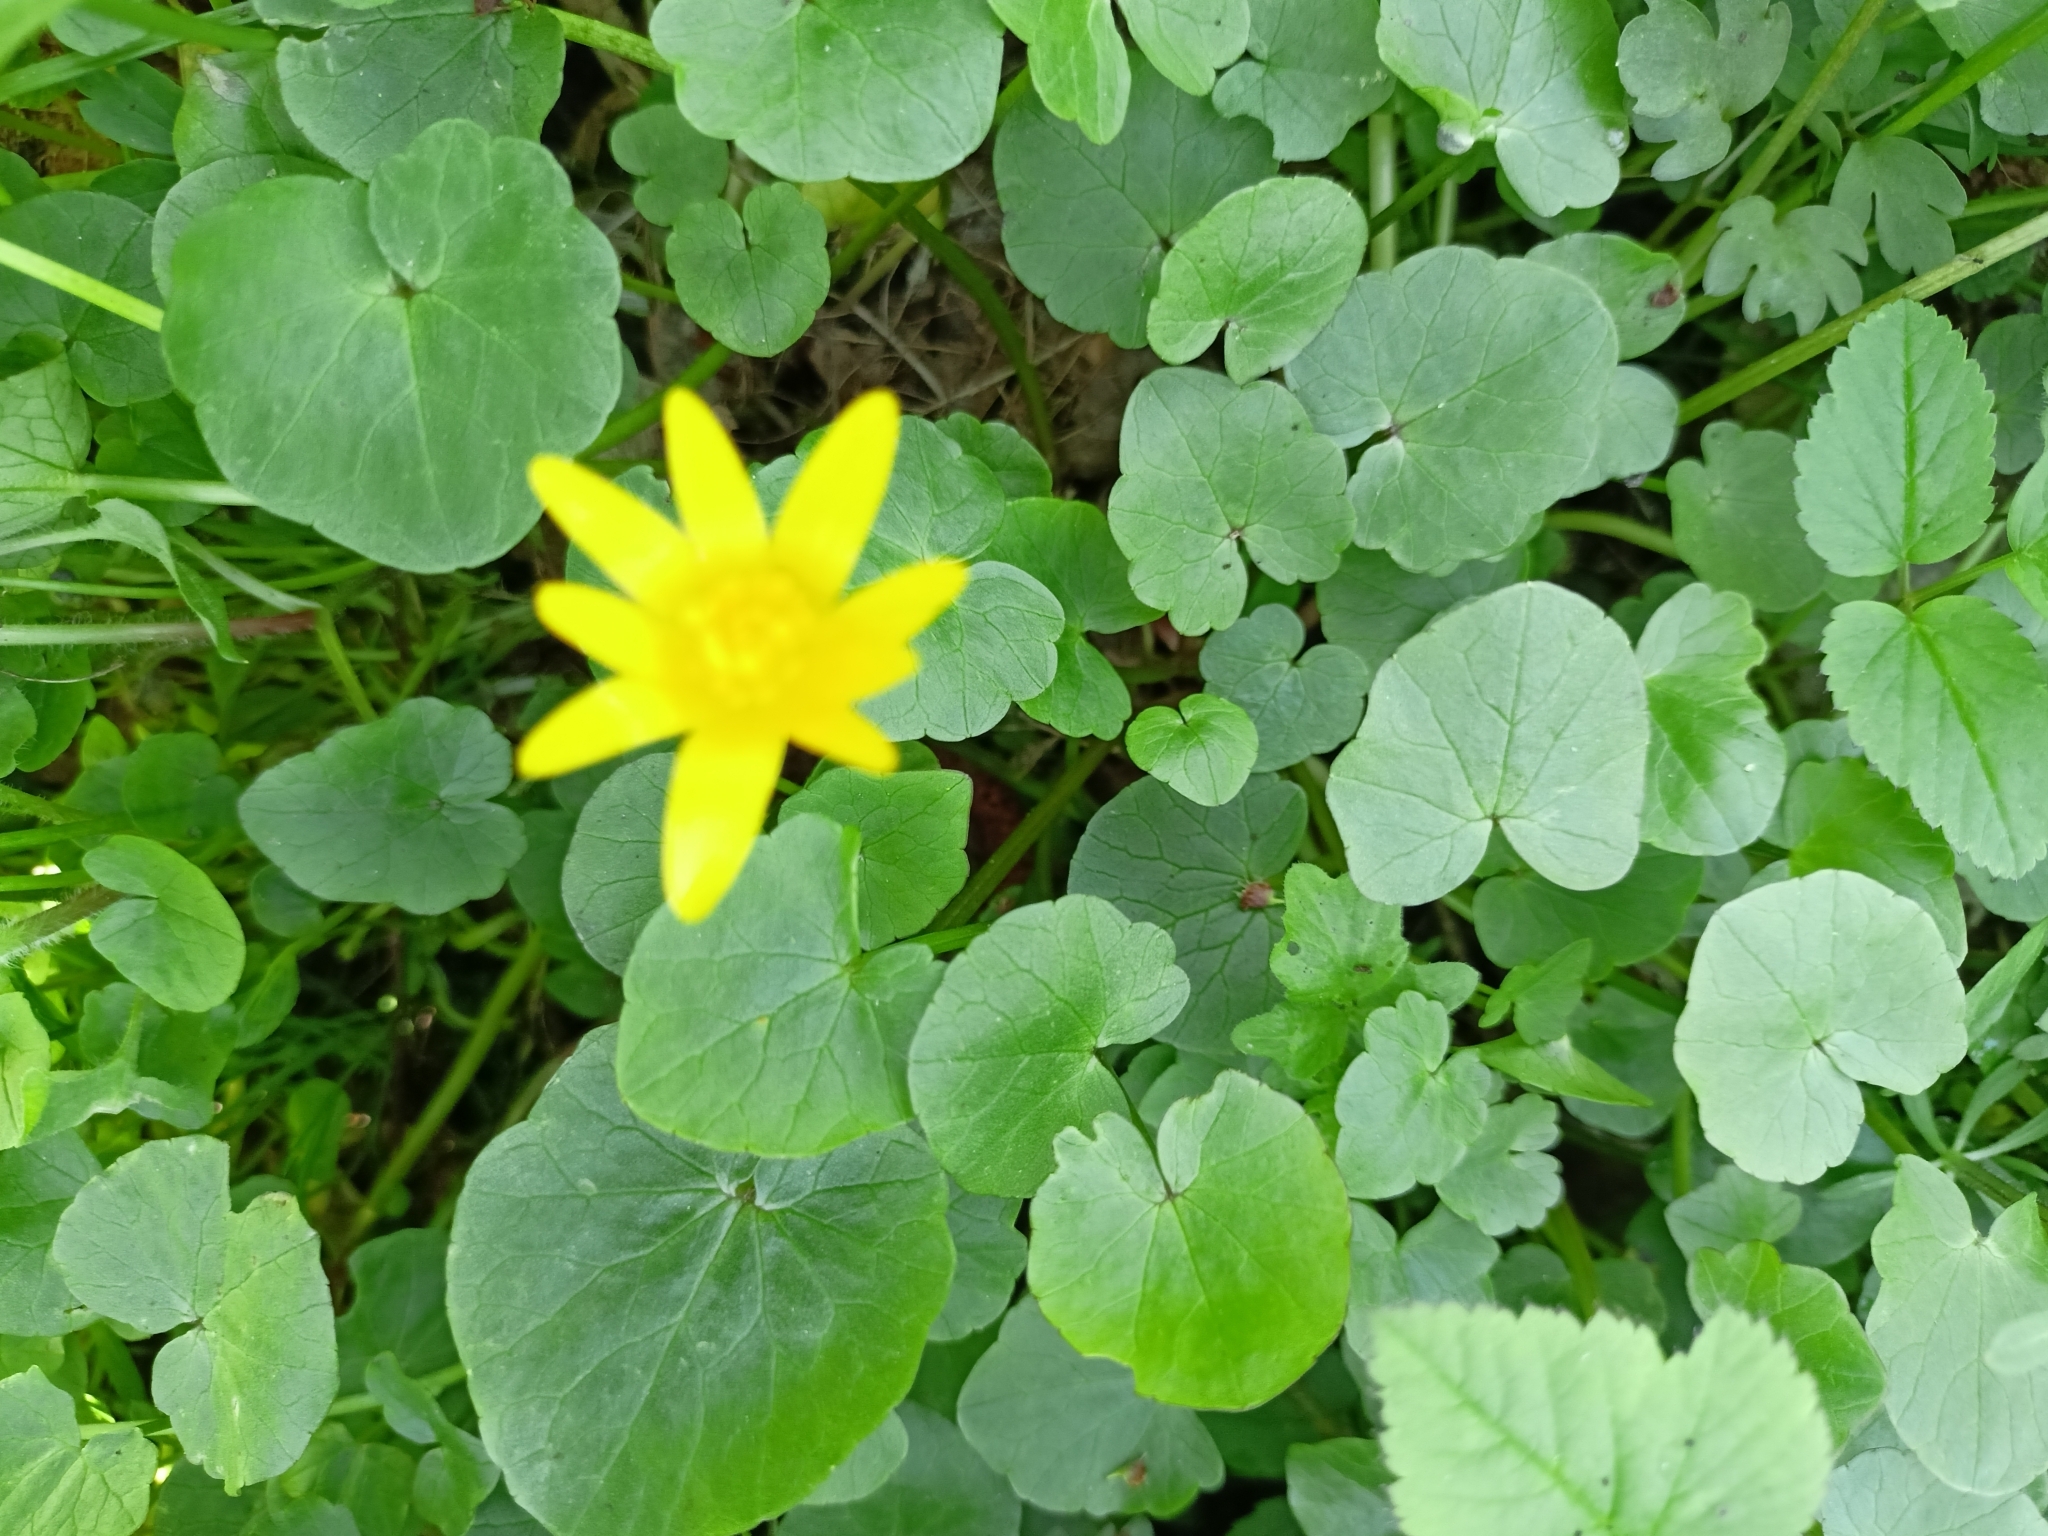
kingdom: Plantae
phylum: Tracheophyta
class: Magnoliopsida
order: Ranunculales
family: Ranunculaceae
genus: Ficaria
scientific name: Ficaria verna
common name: Lesser celandine
